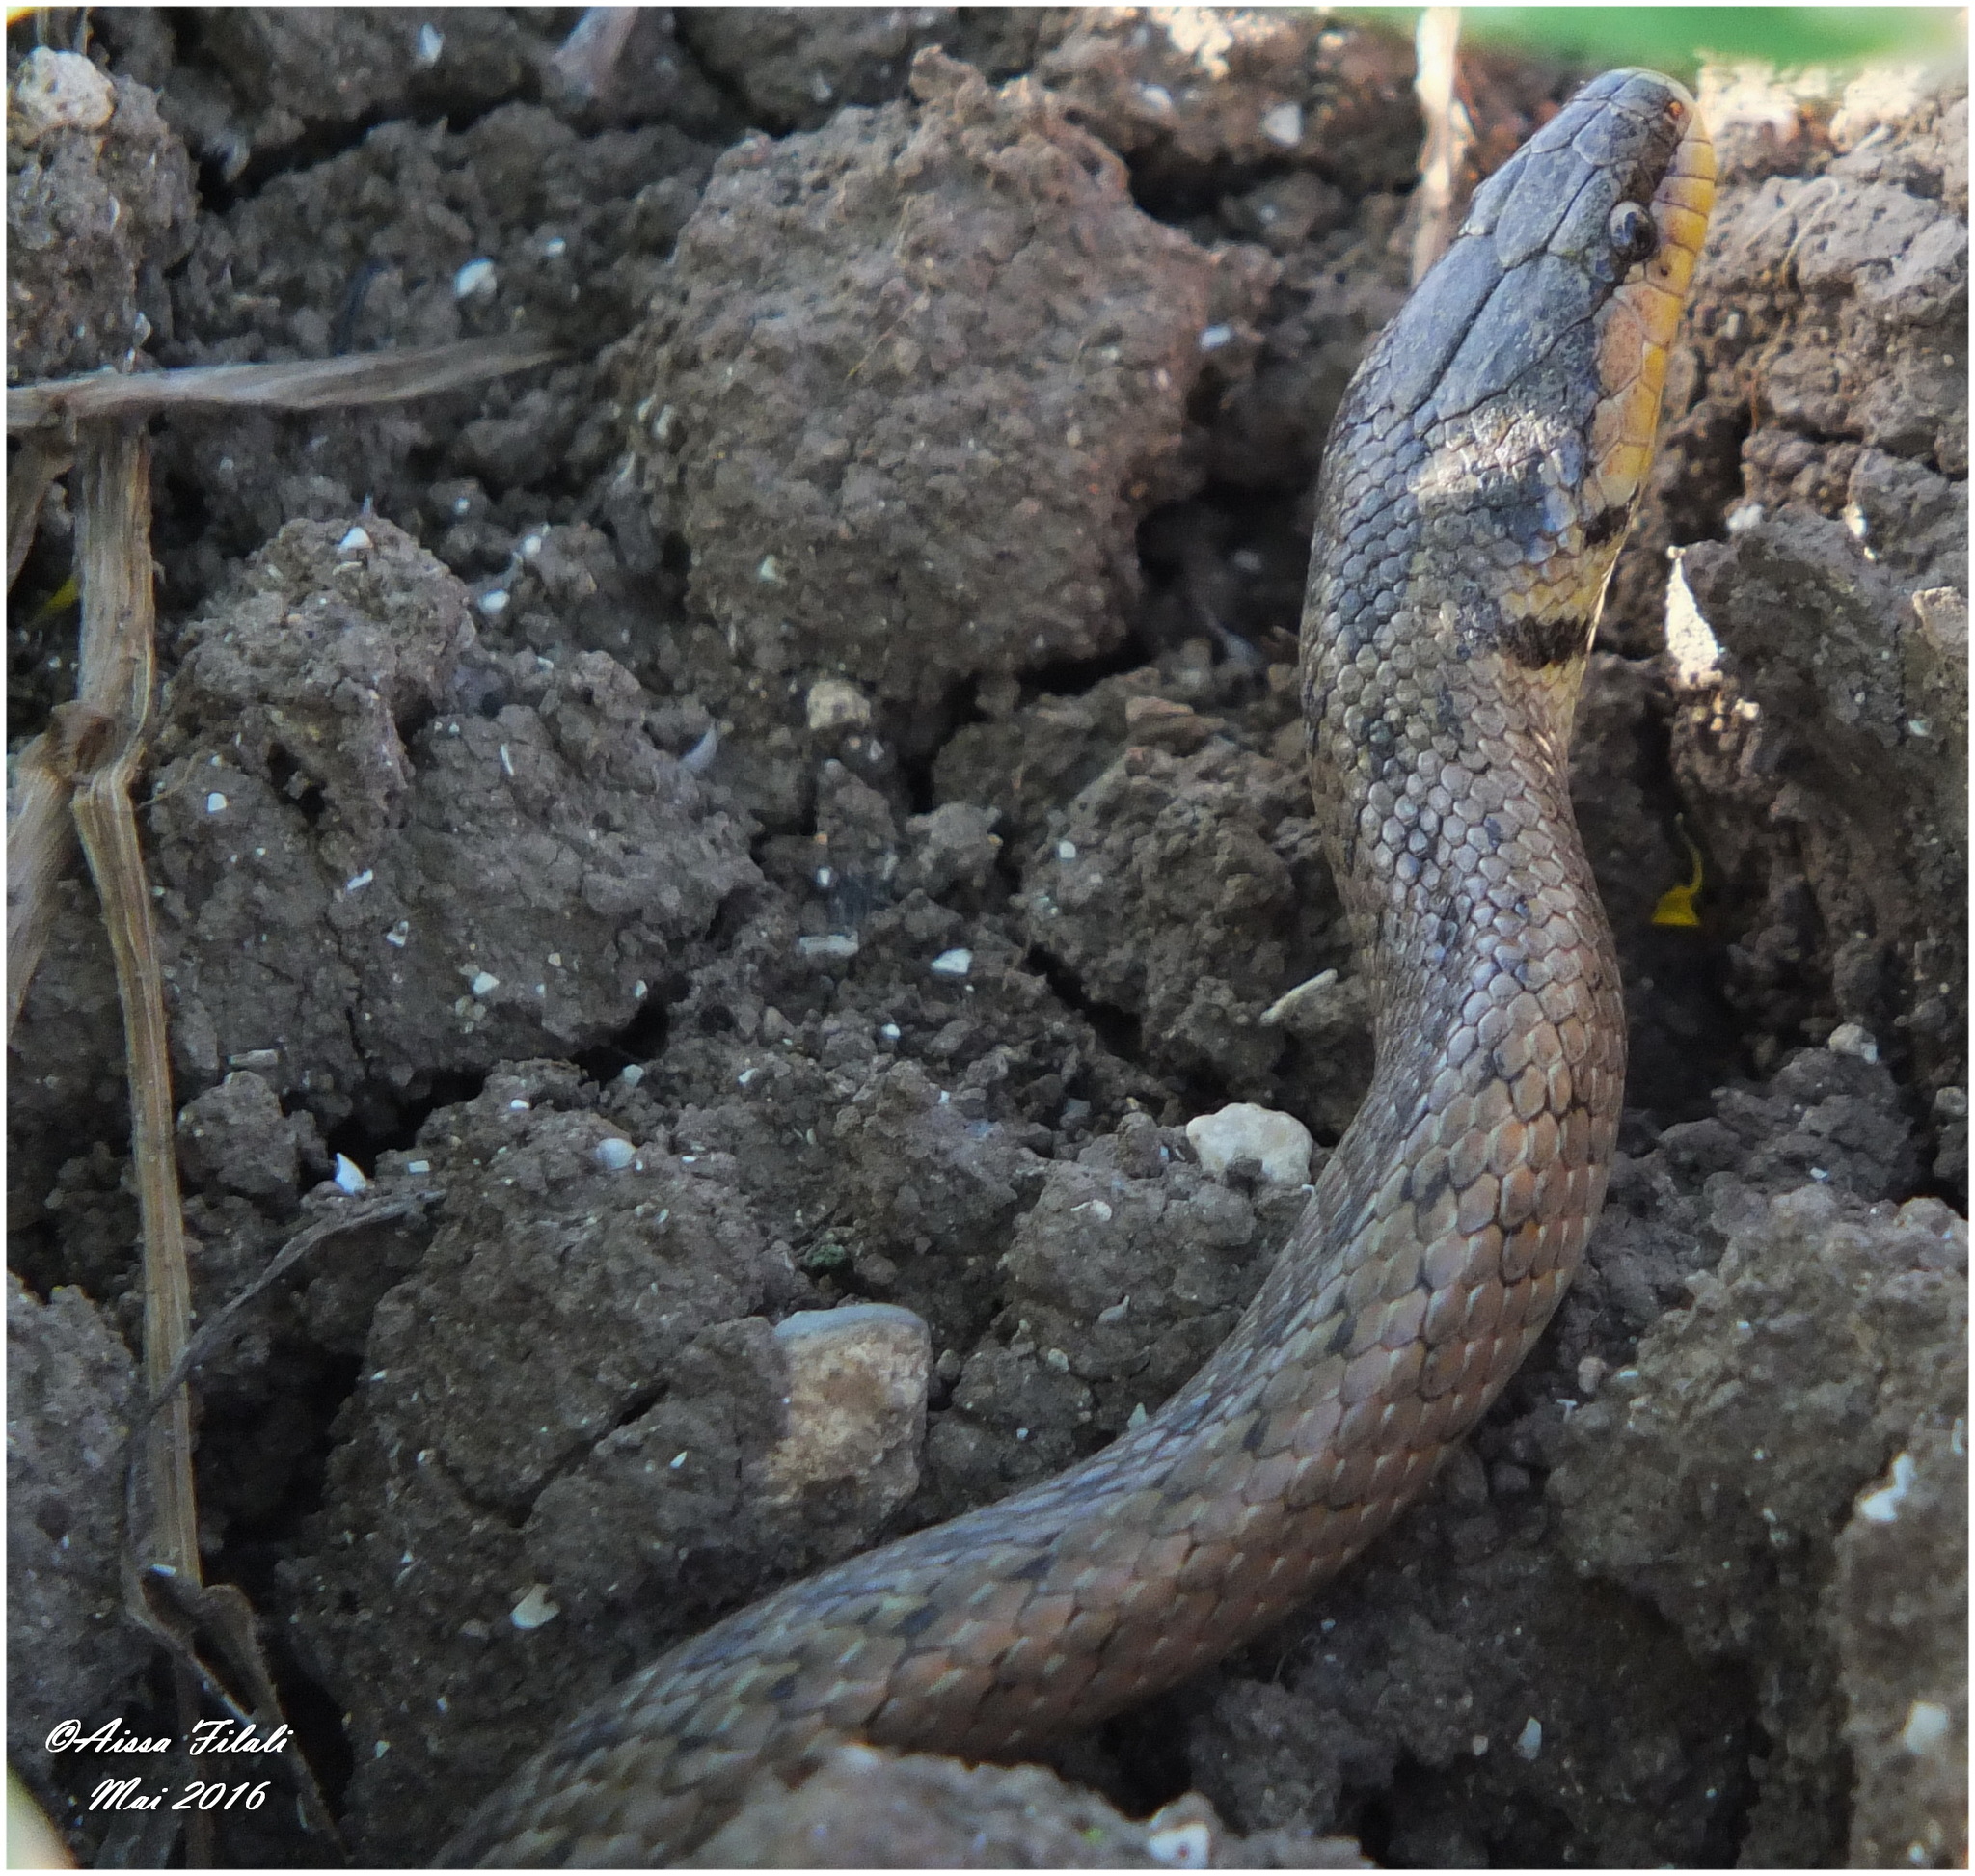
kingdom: Animalia
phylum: Chordata
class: Squamata
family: Colubridae
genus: Macroprotodon
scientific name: Macroprotodon mauritanicus
